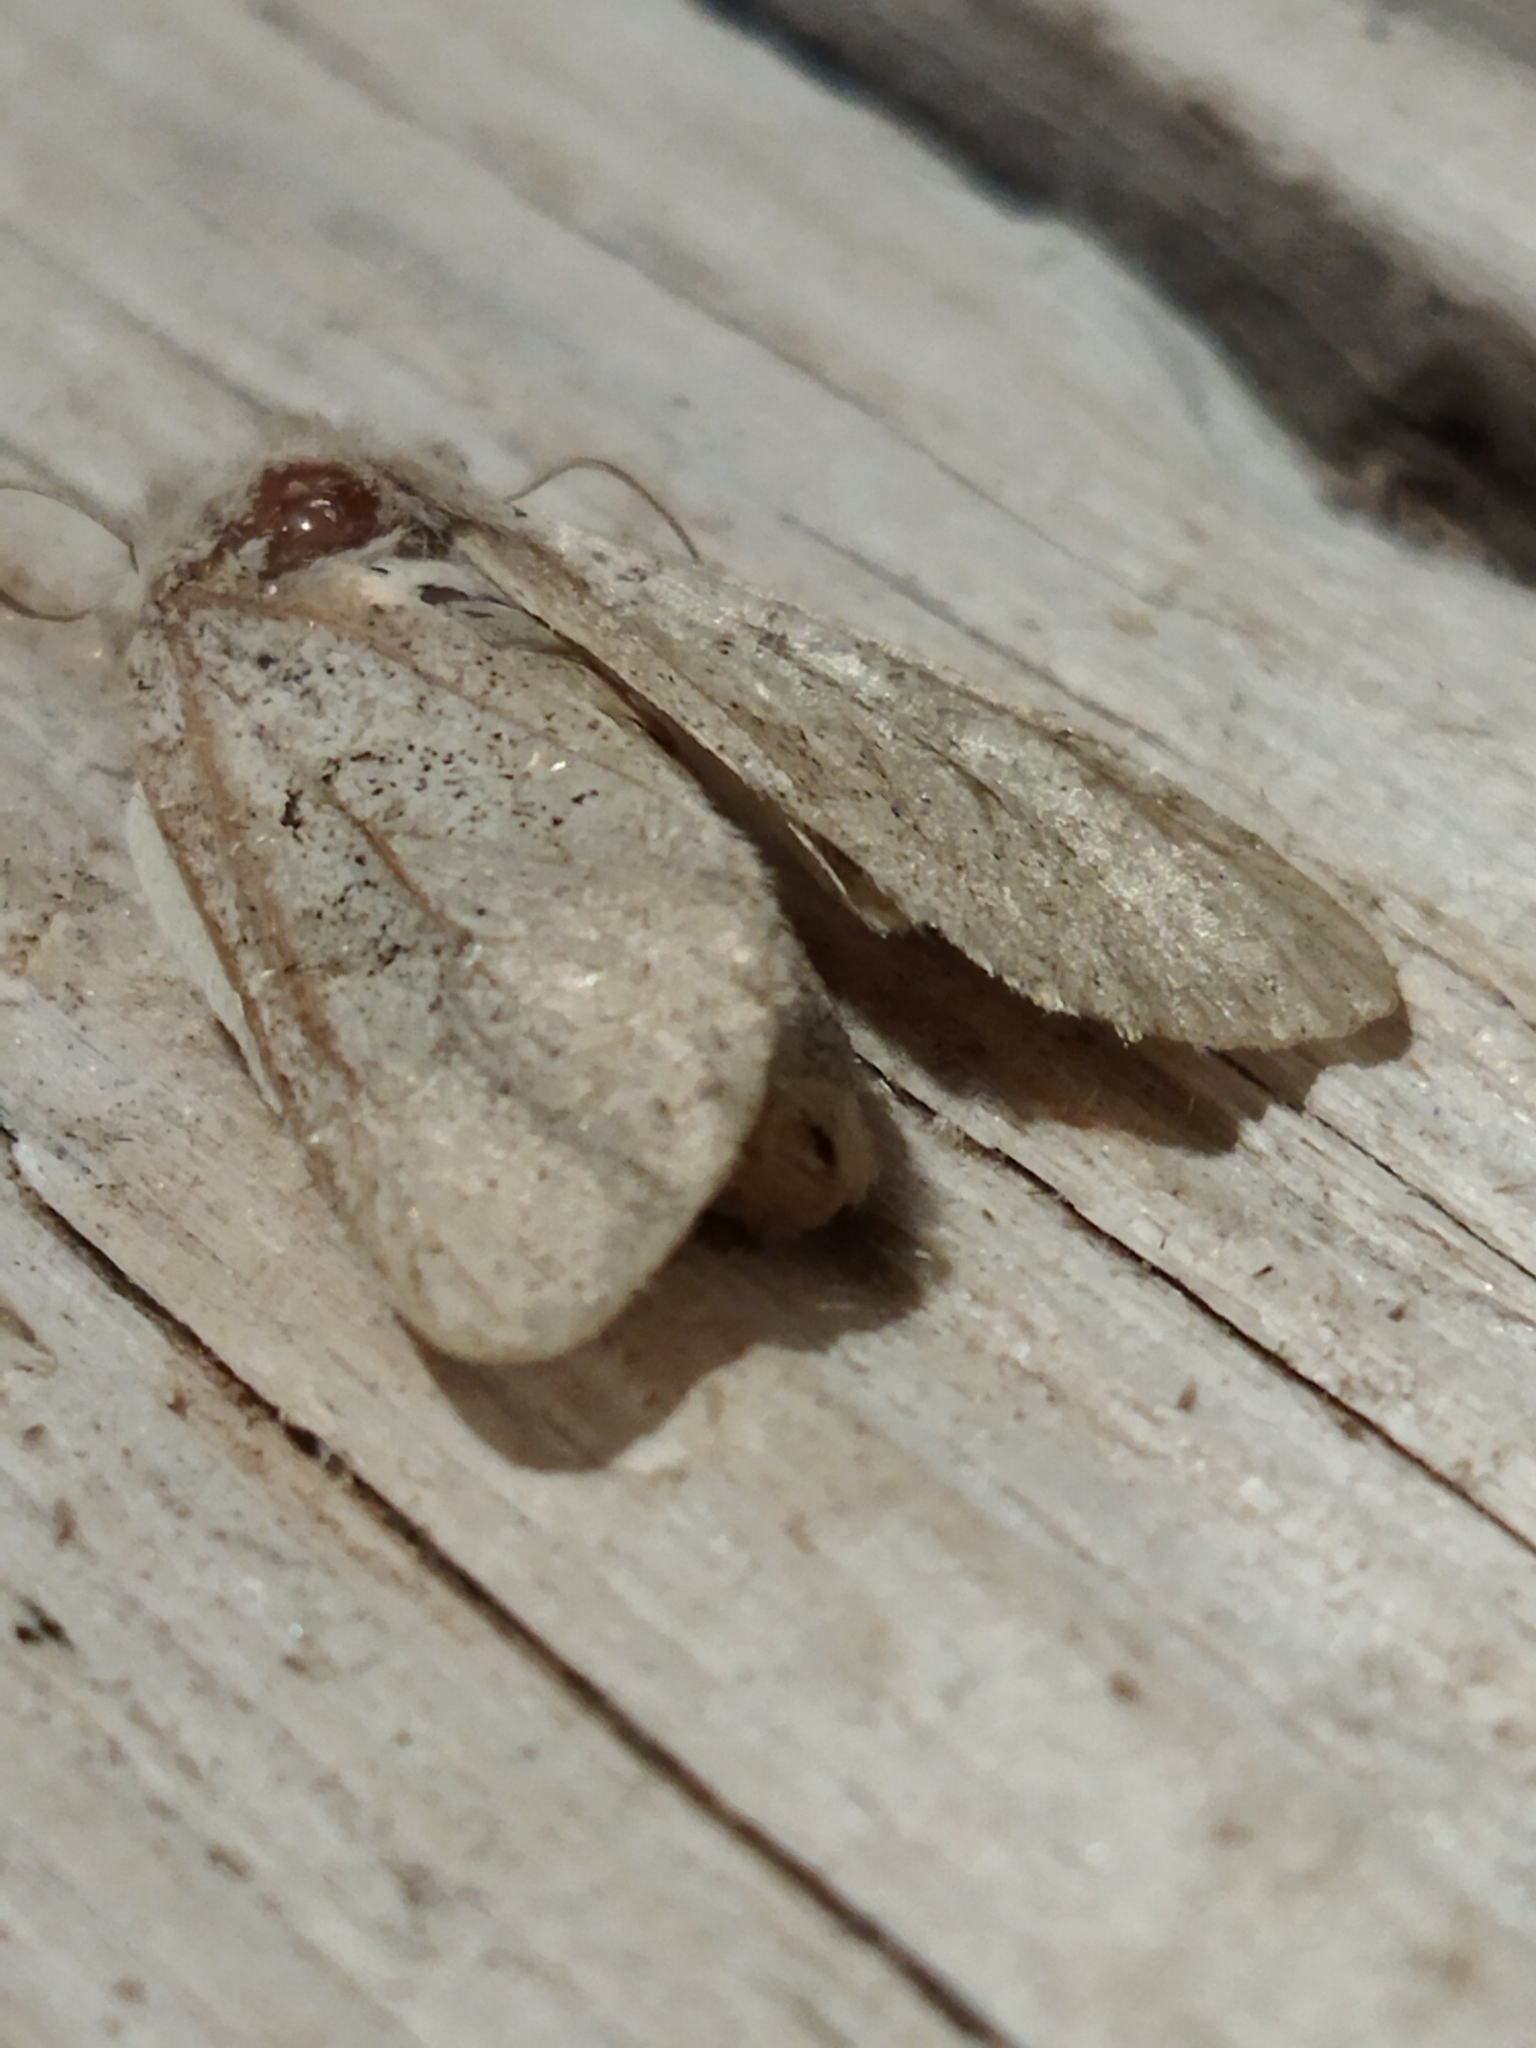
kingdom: Animalia
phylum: Arthropoda
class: Insecta
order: Lepidoptera
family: Noctuidae
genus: Episema
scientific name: Episema lederi
